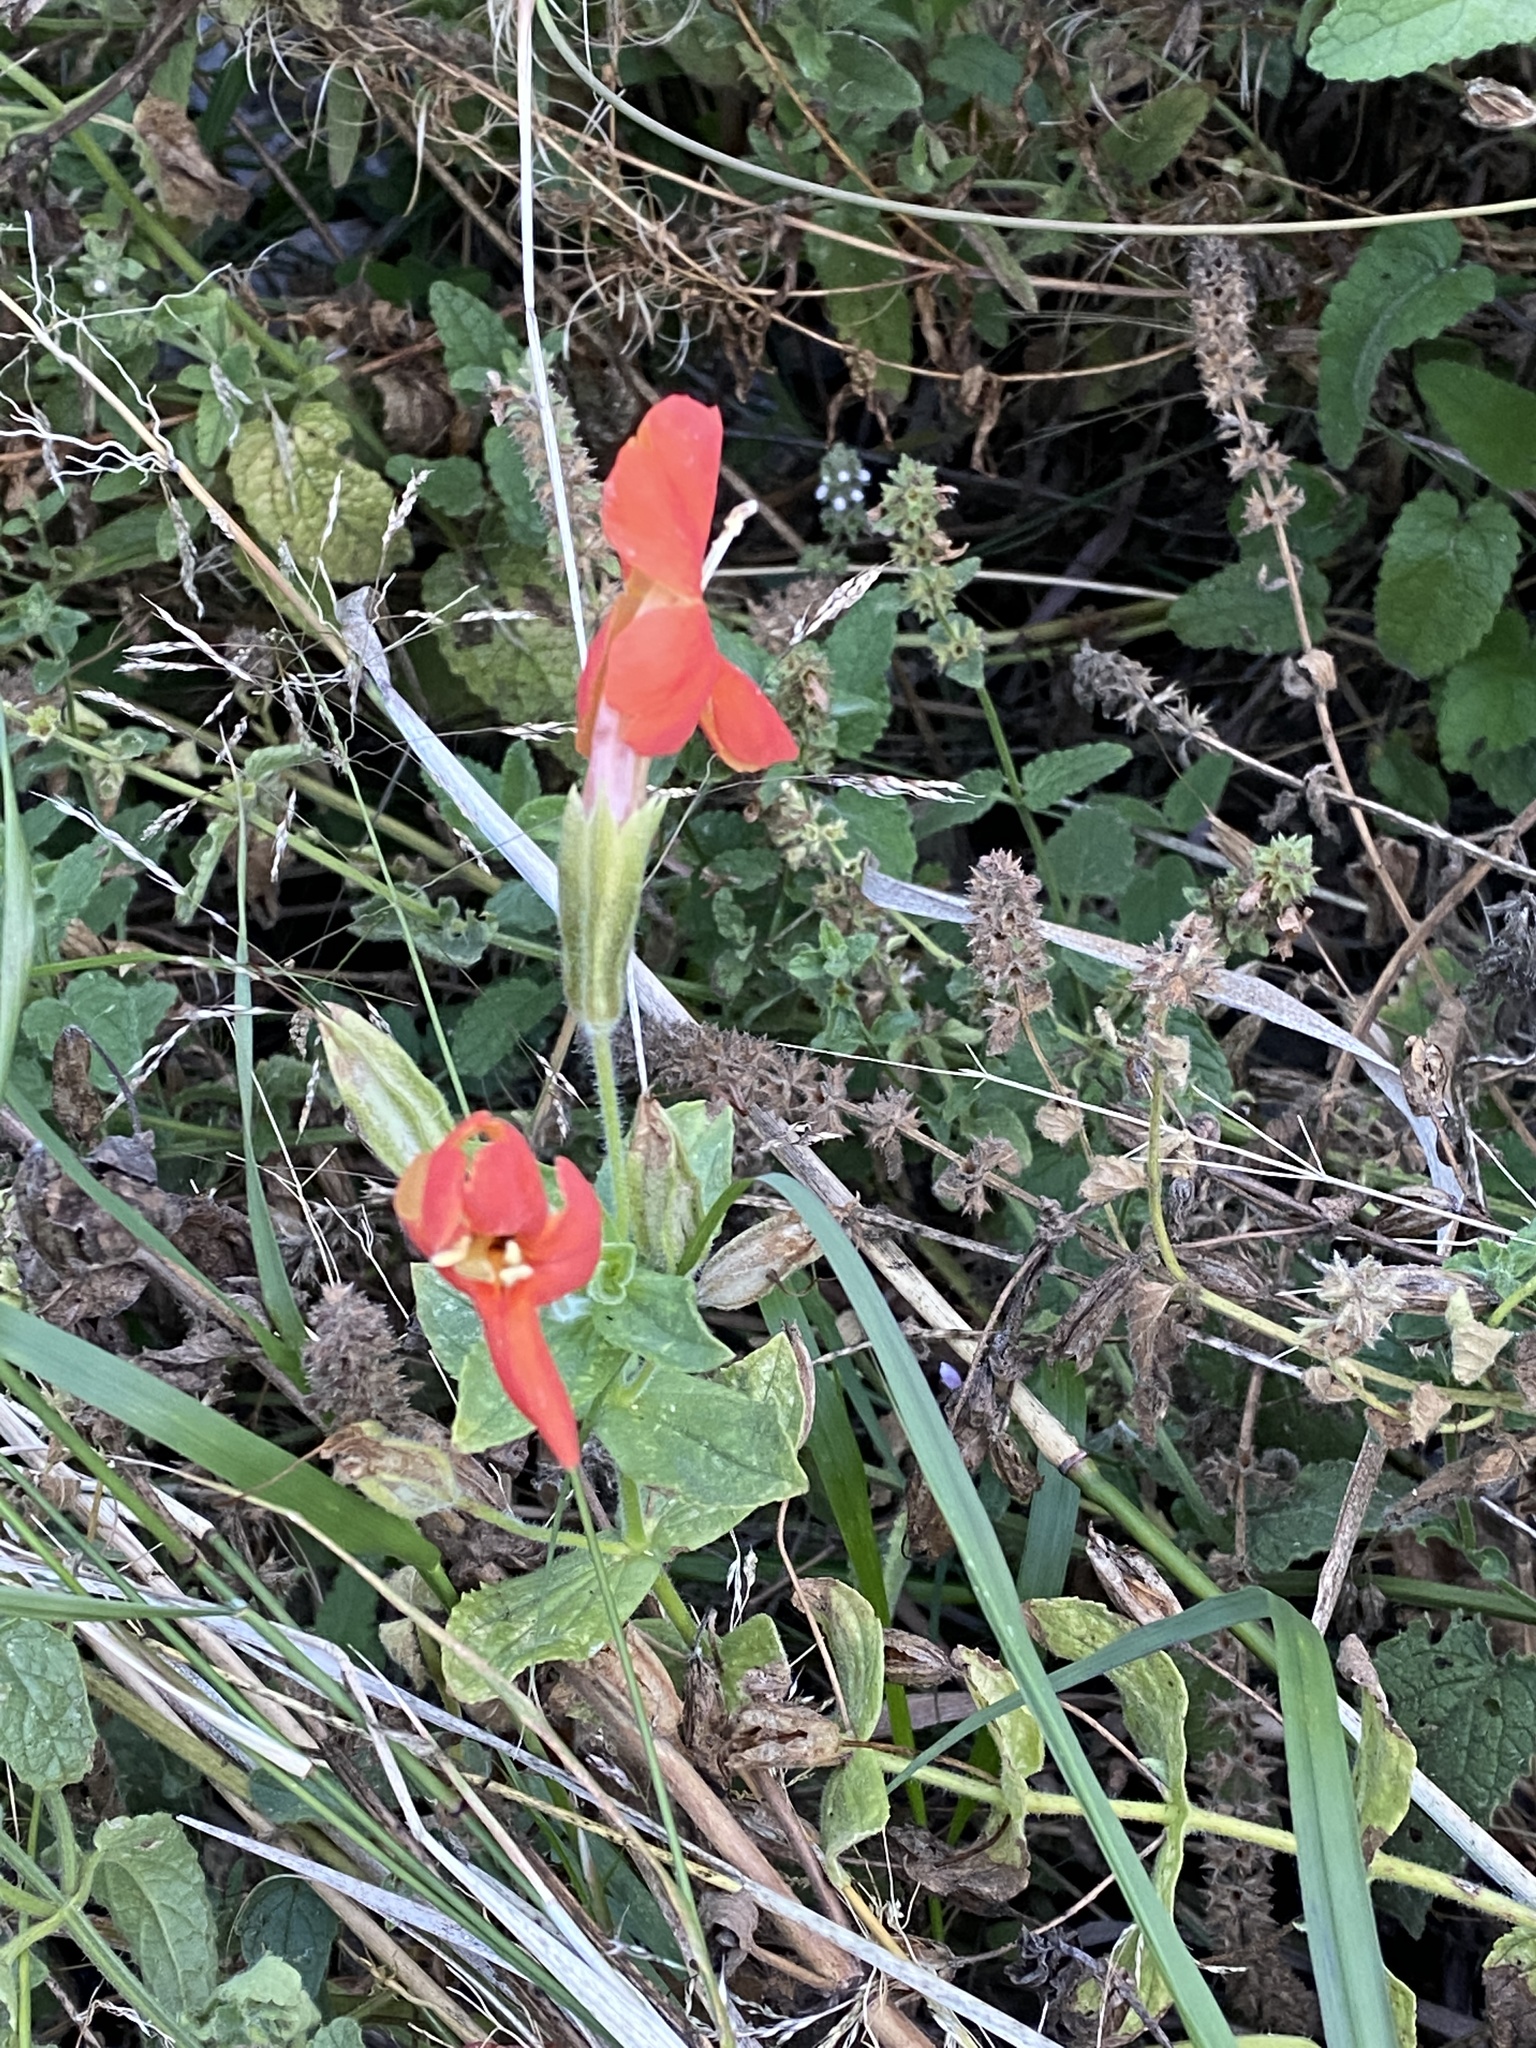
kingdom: Plantae
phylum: Tracheophyta
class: Magnoliopsida
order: Lamiales
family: Phrymaceae
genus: Erythranthe
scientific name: Erythranthe cardinalis
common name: Scarlet monkey-flower
